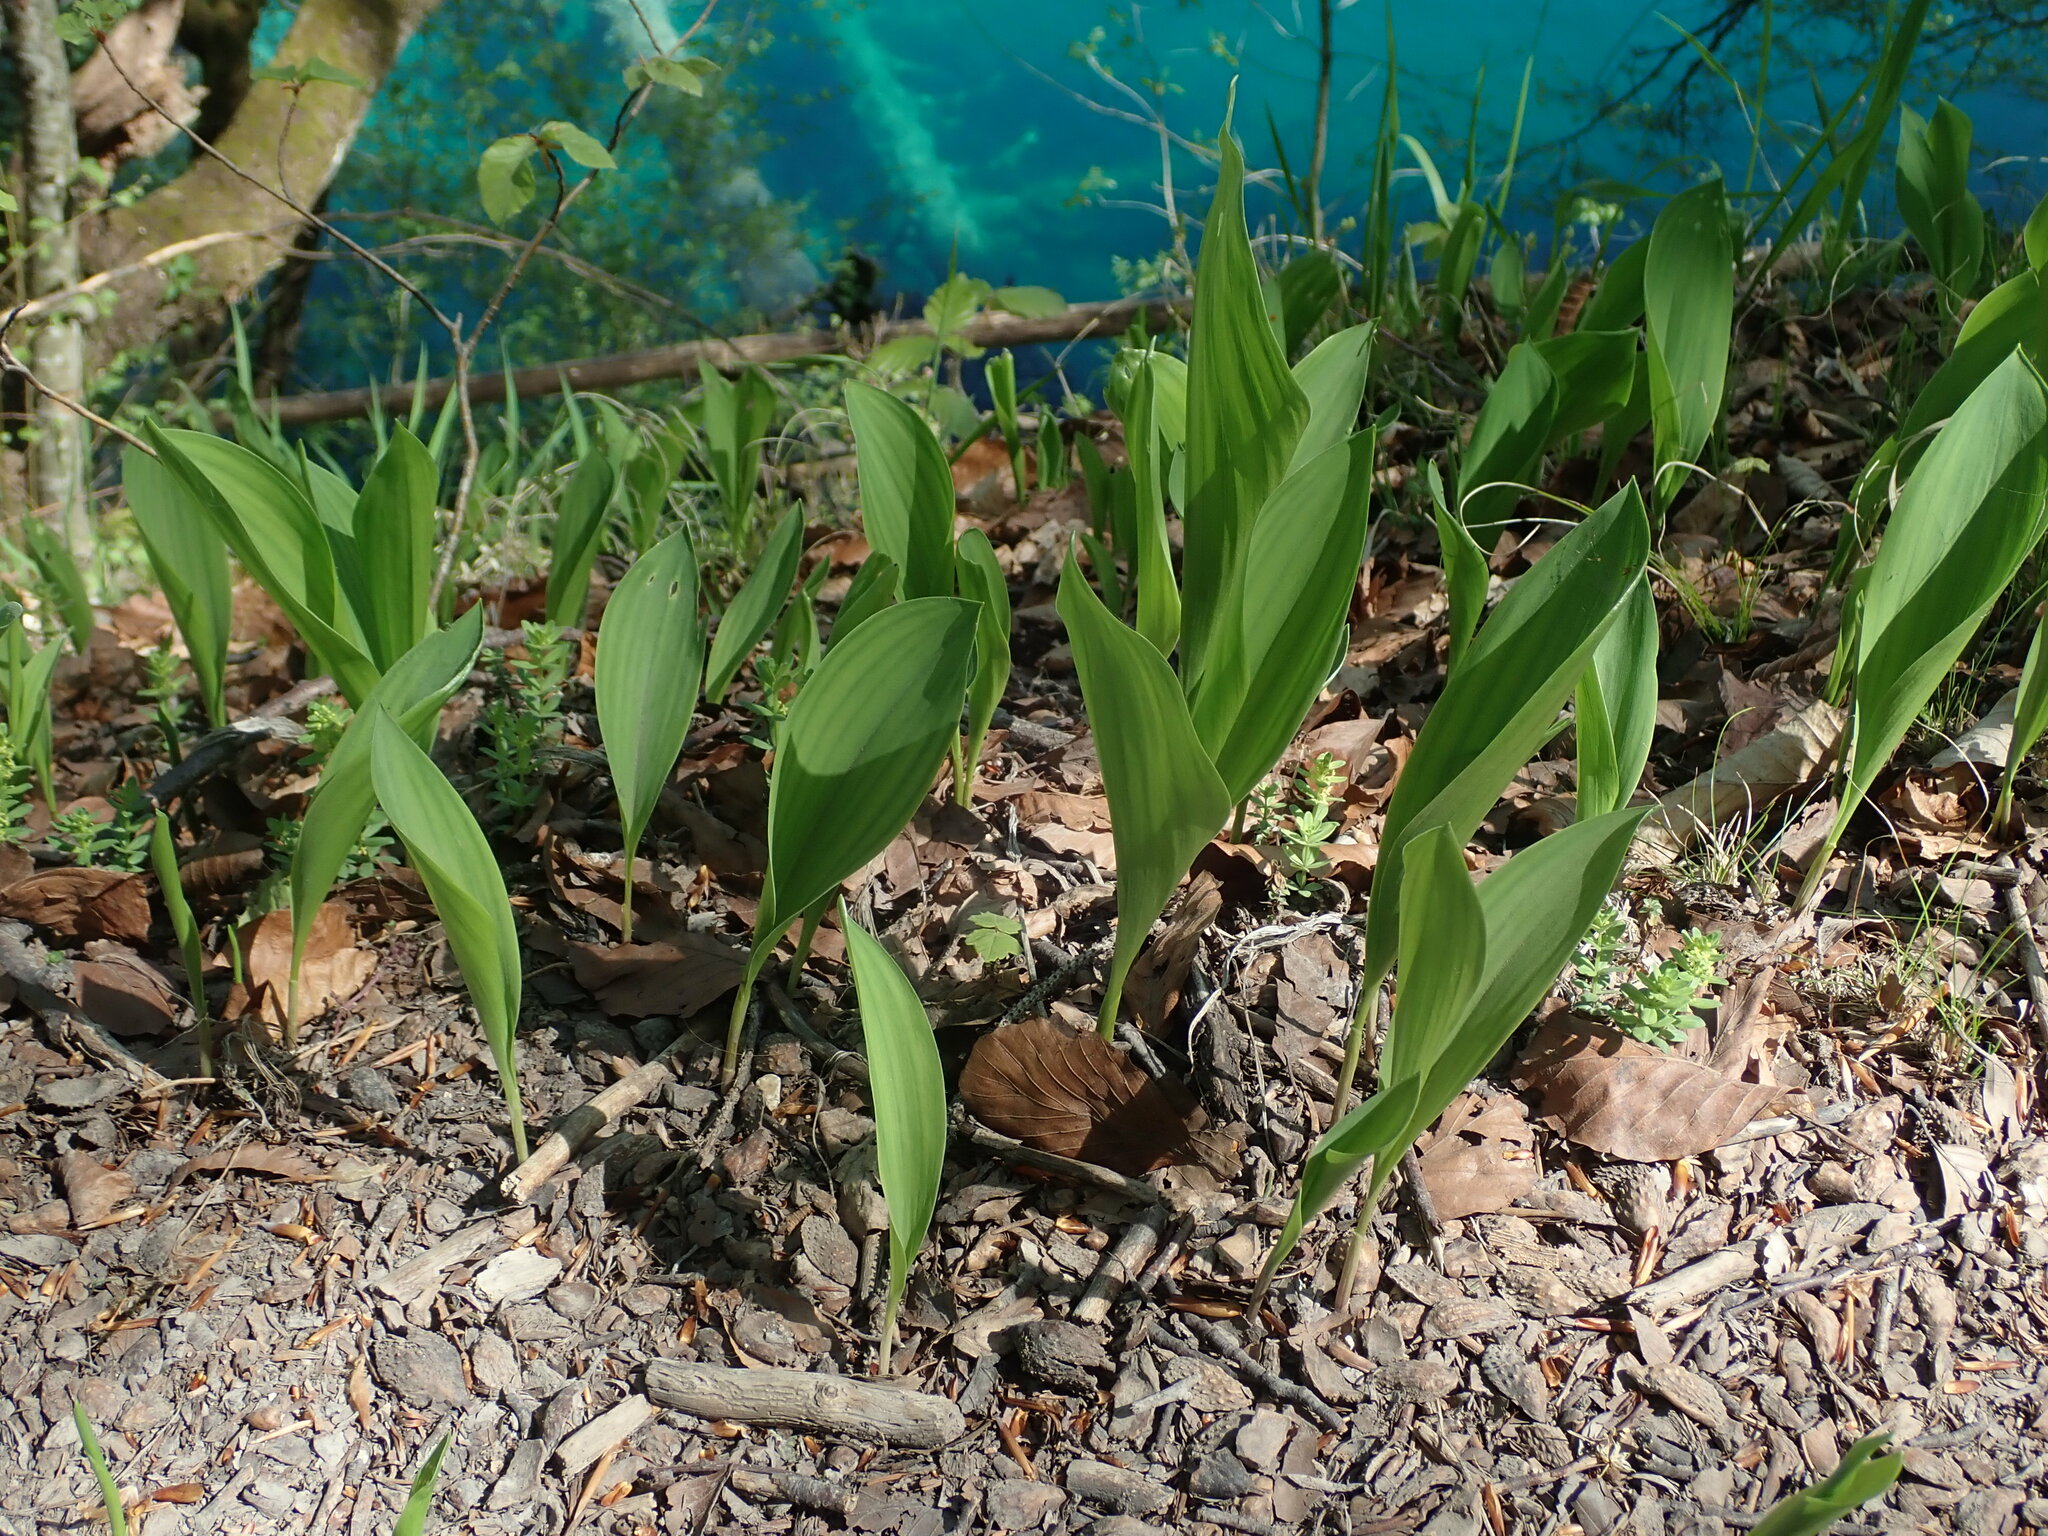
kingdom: Plantae
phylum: Tracheophyta
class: Liliopsida
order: Asparagales
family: Asparagaceae
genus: Convallaria
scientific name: Convallaria majalis
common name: Lily-of-the-valley
